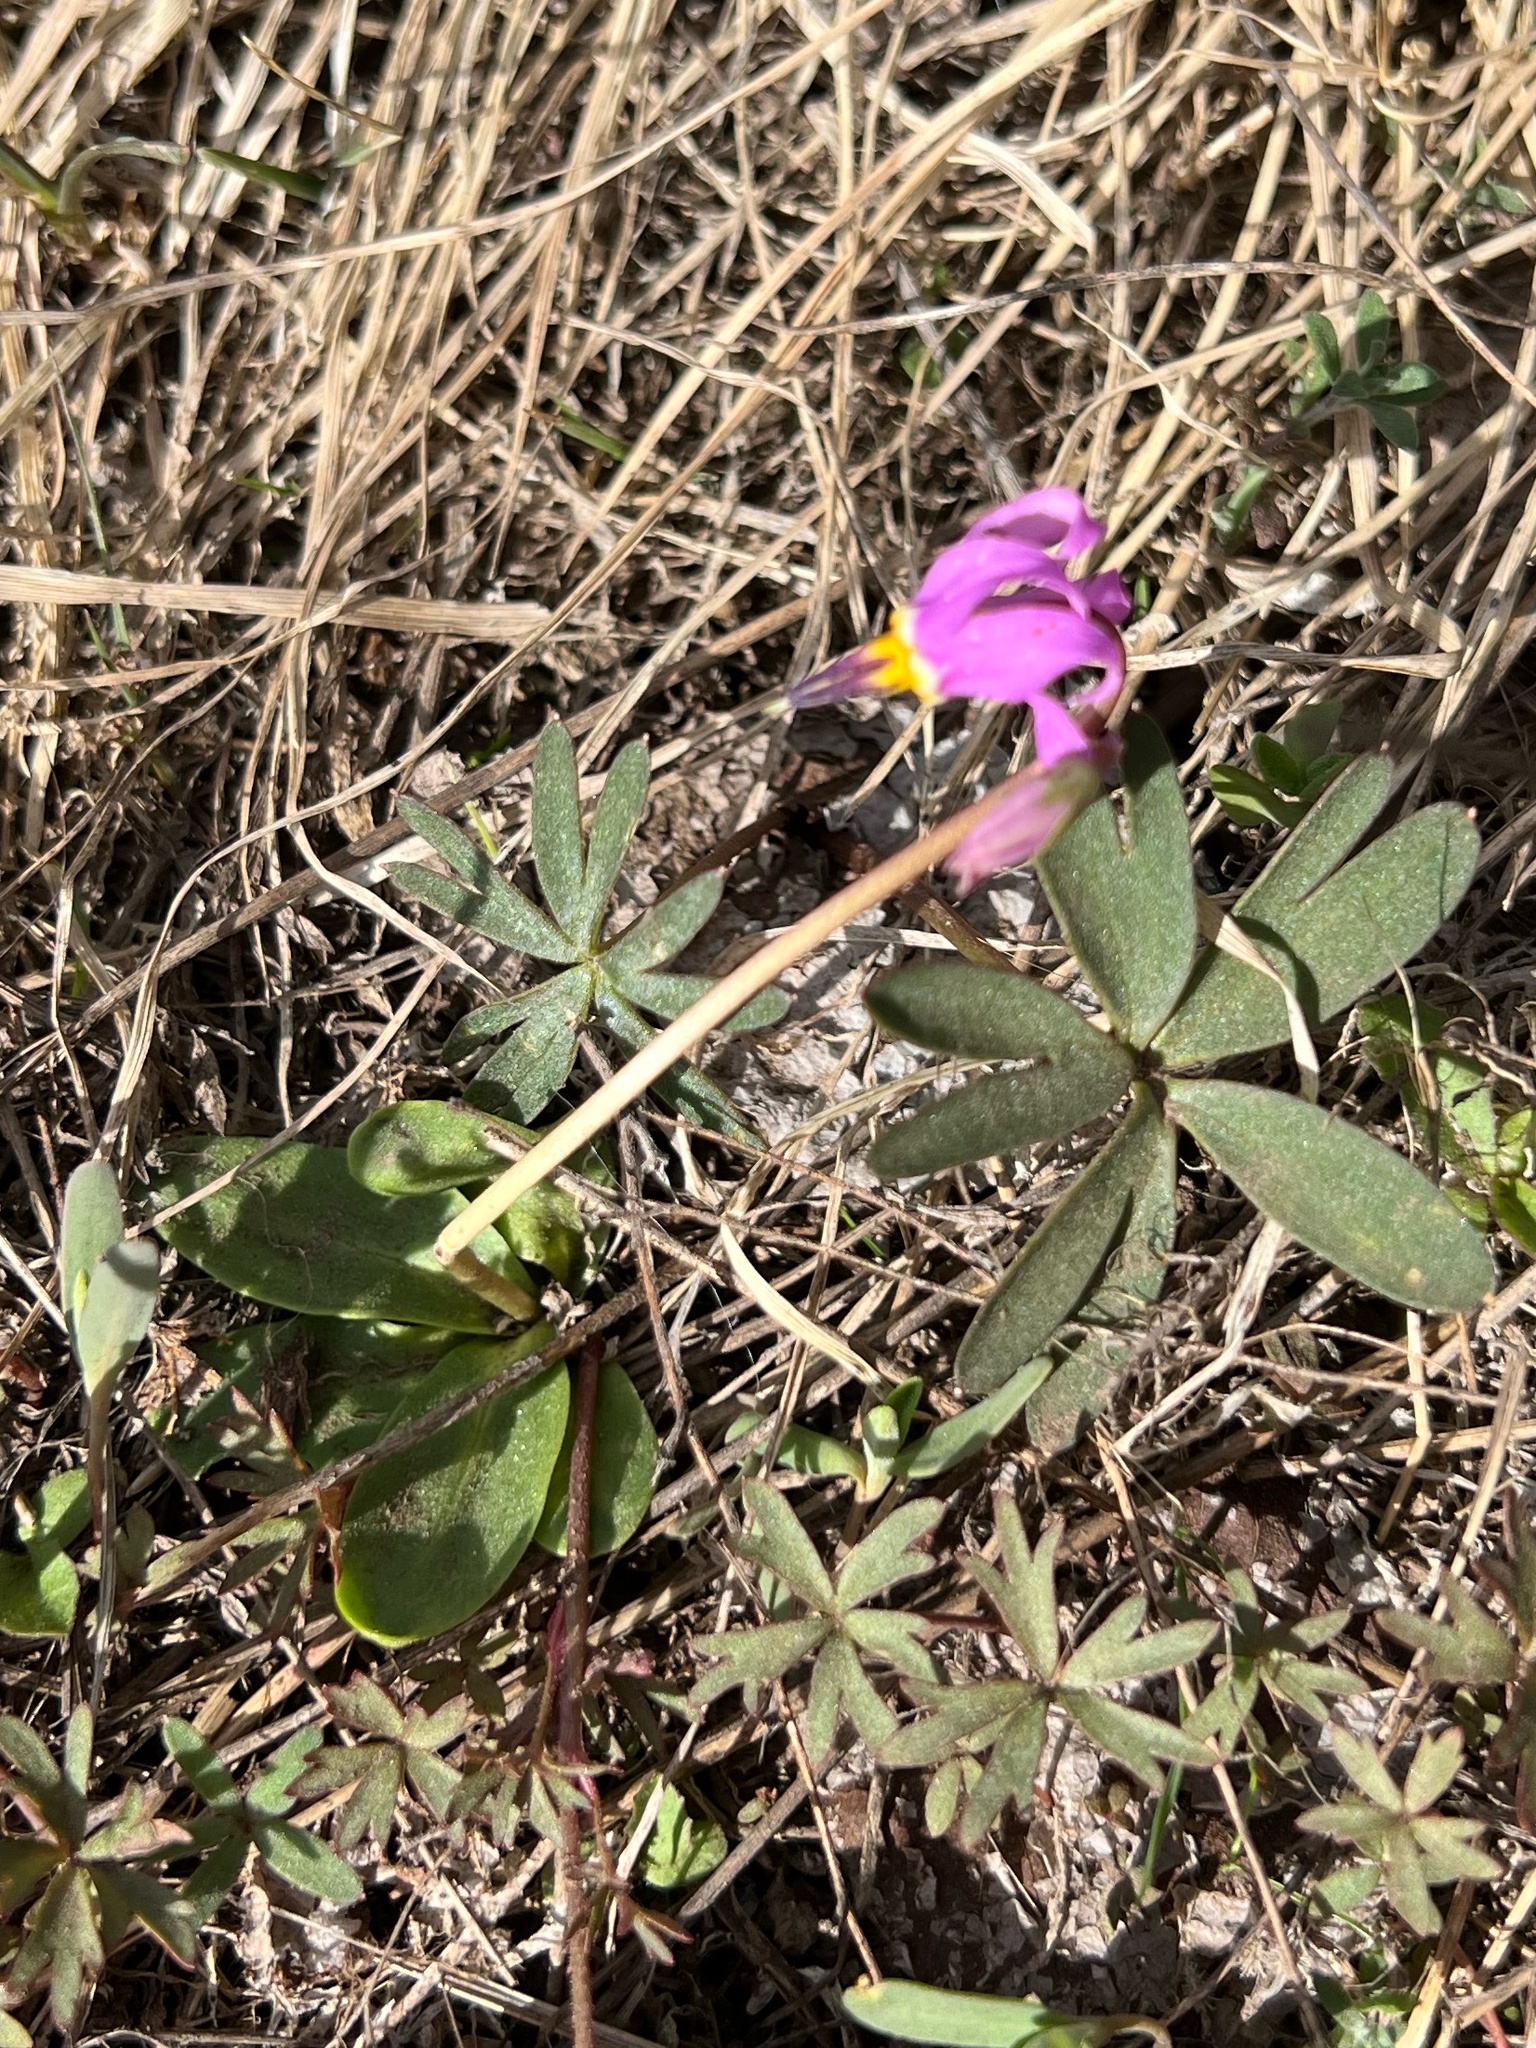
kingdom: Plantae
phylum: Tracheophyta
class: Magnoliopsida
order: Ericales
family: Primulaceae
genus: Dodecatheon
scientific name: Dodecatheon conjugens
